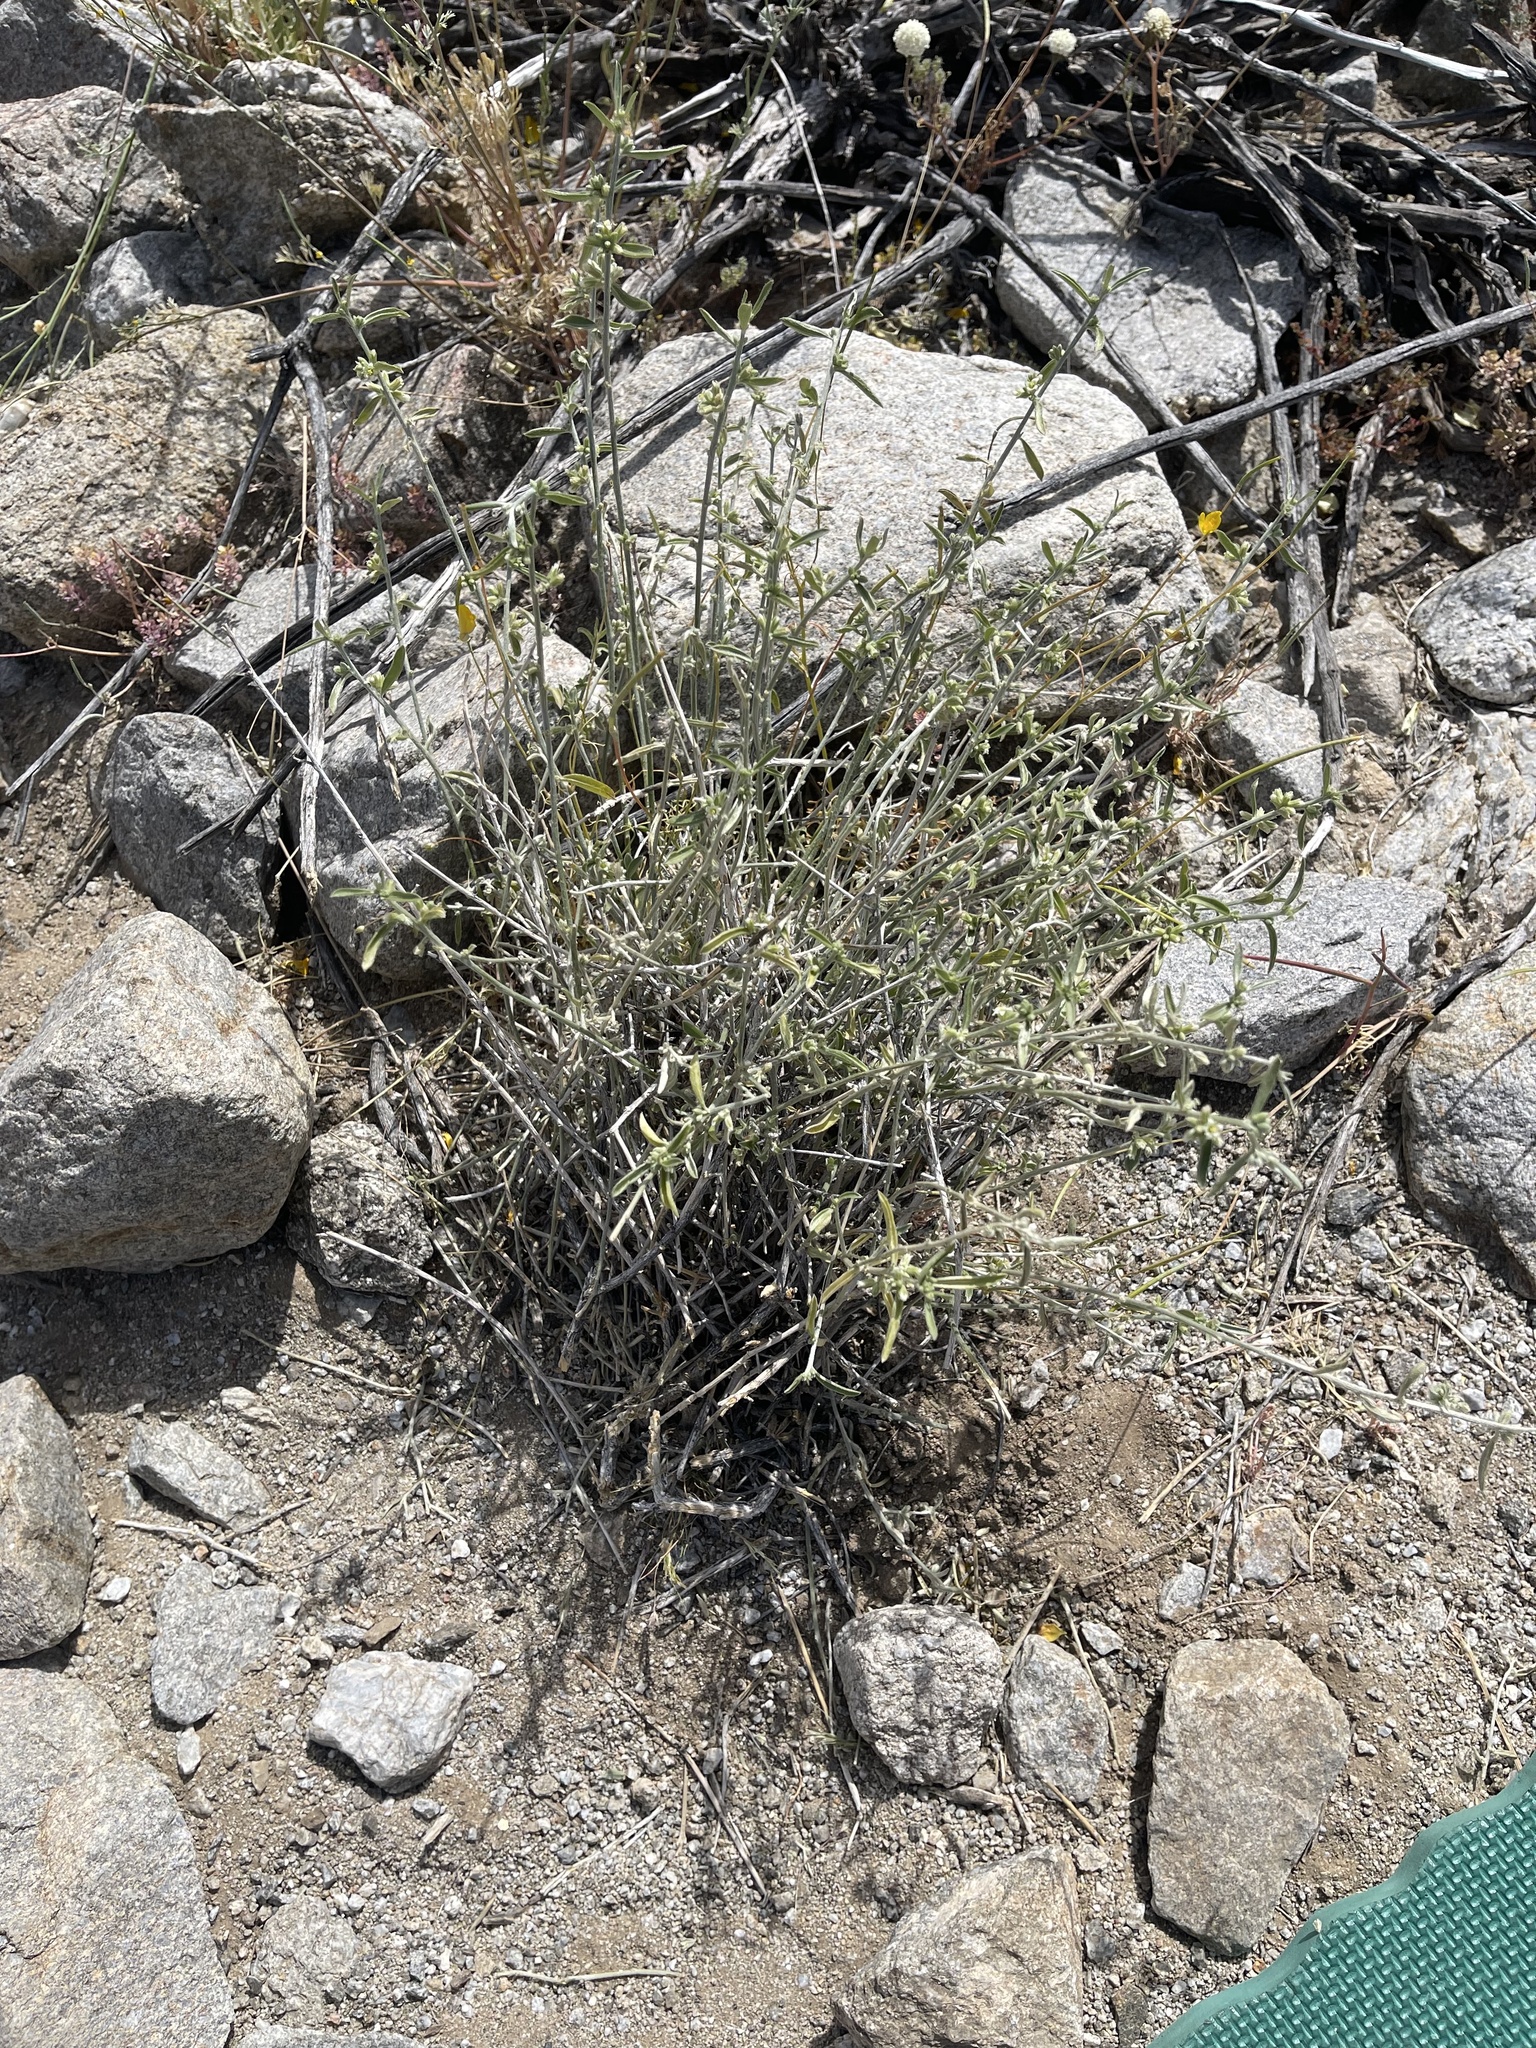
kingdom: Plantae
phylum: Tracheophyta
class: Magnoliopsida
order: Malpighiales
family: Euphorbiaceae
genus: Ditaxis
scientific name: Ditaxis lanceolata
